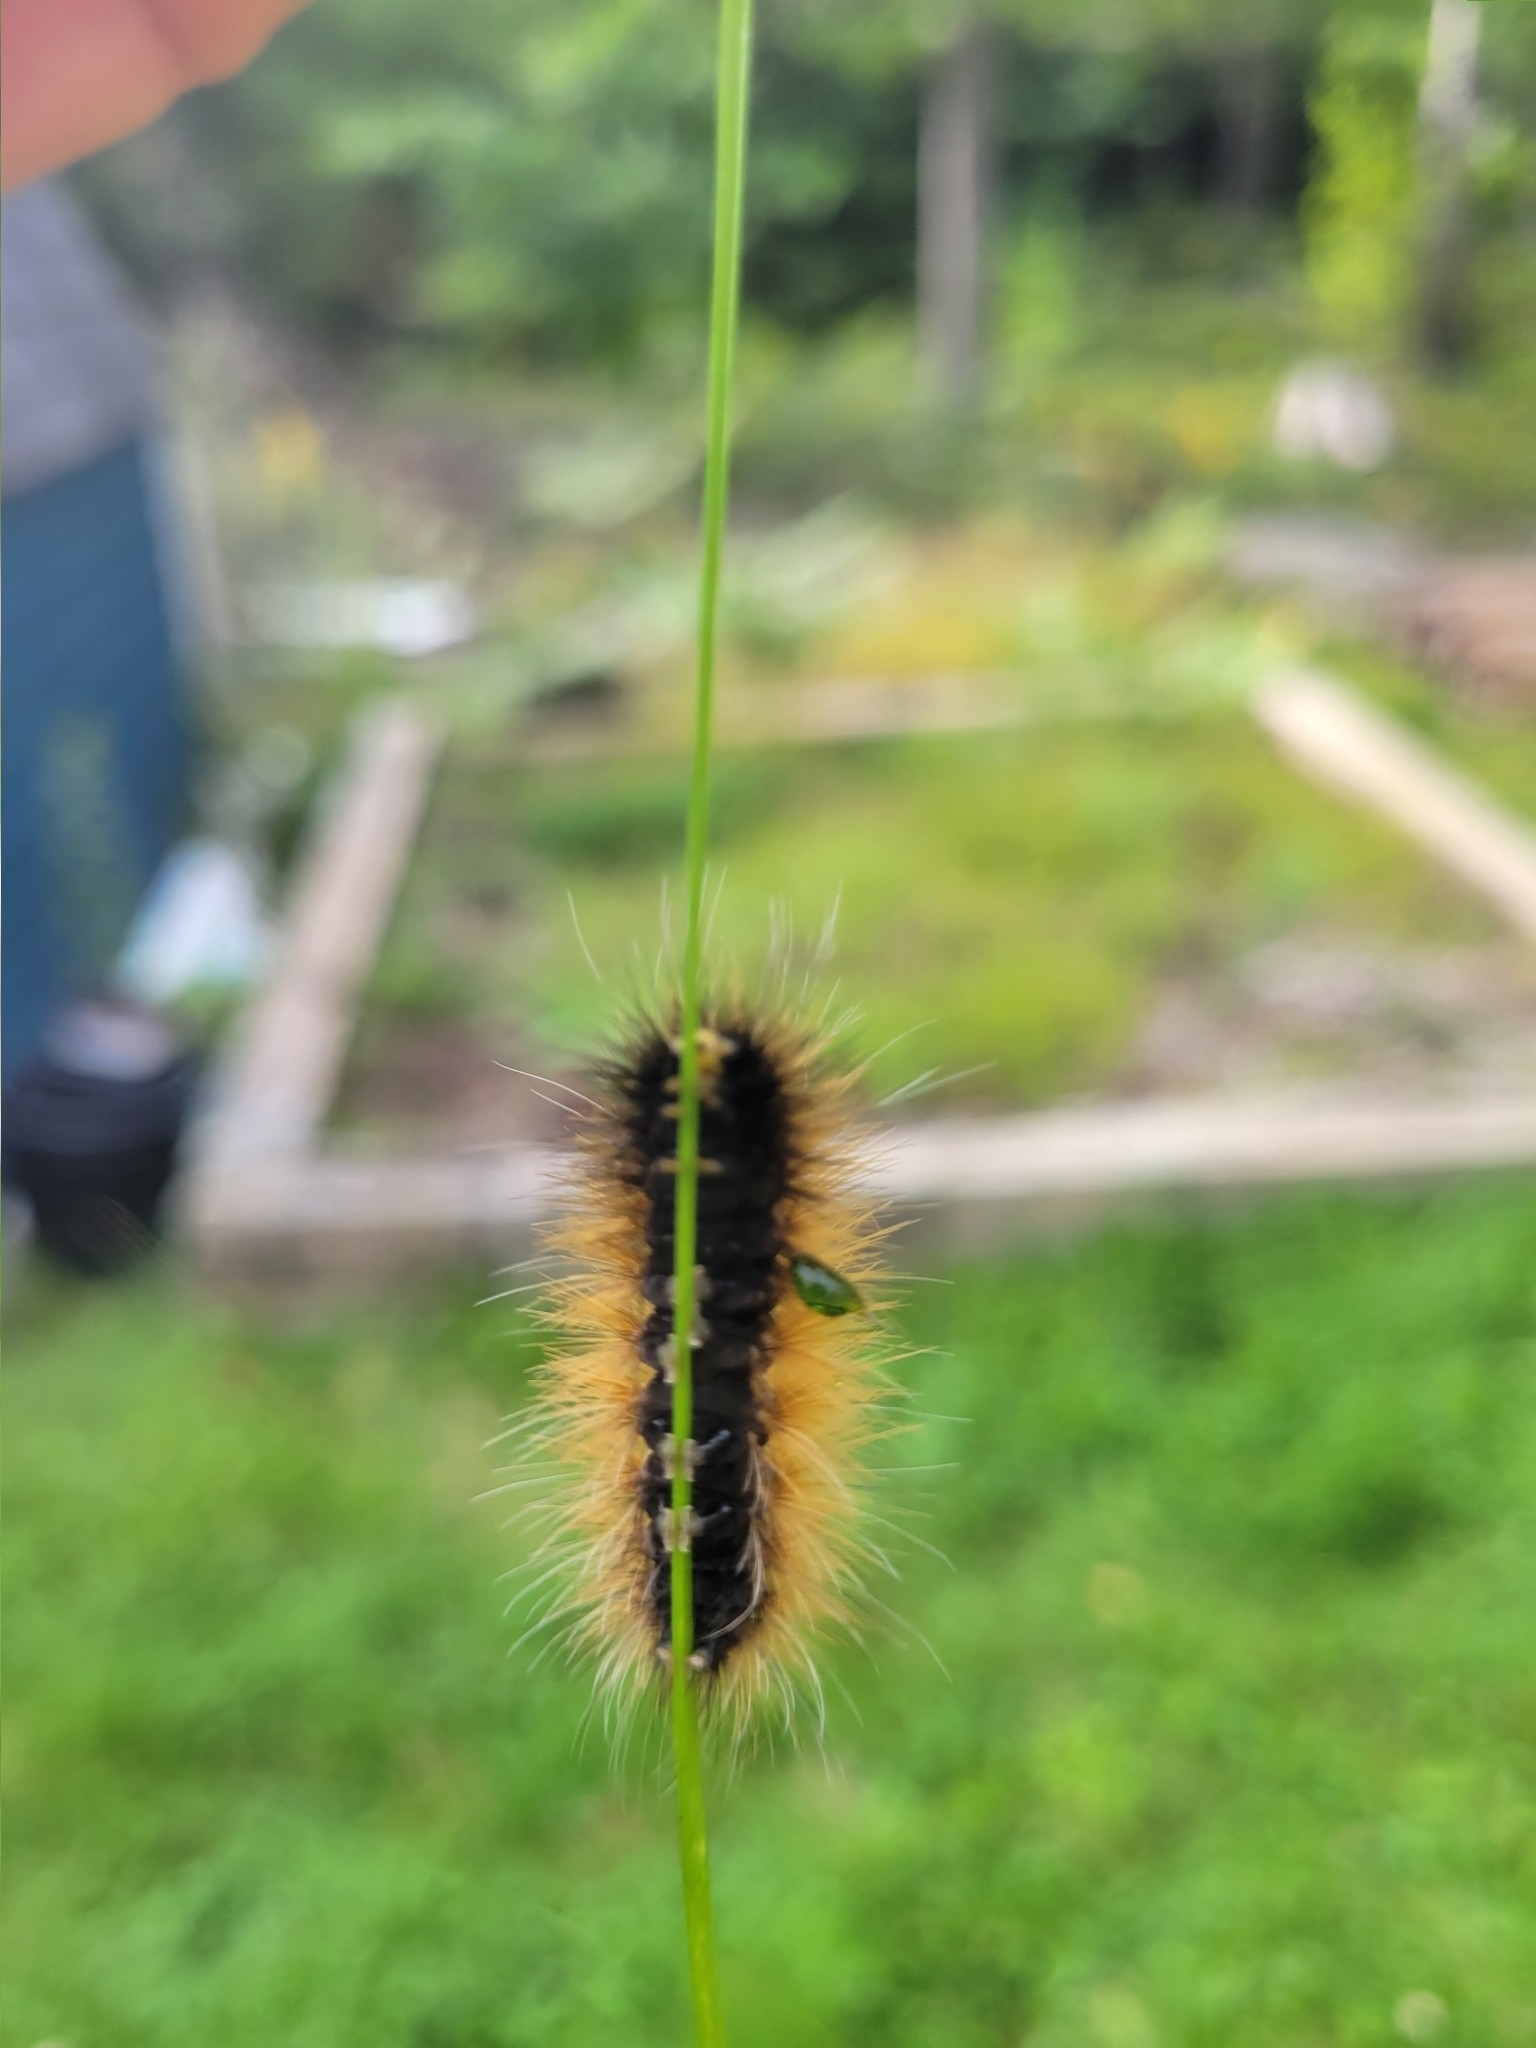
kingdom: Animalia
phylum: Arthropoda
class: Insecta
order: Lepidoptera
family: Erebidae
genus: Spilosoma
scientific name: Spilosoma virginica
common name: Virginia tiger moth
